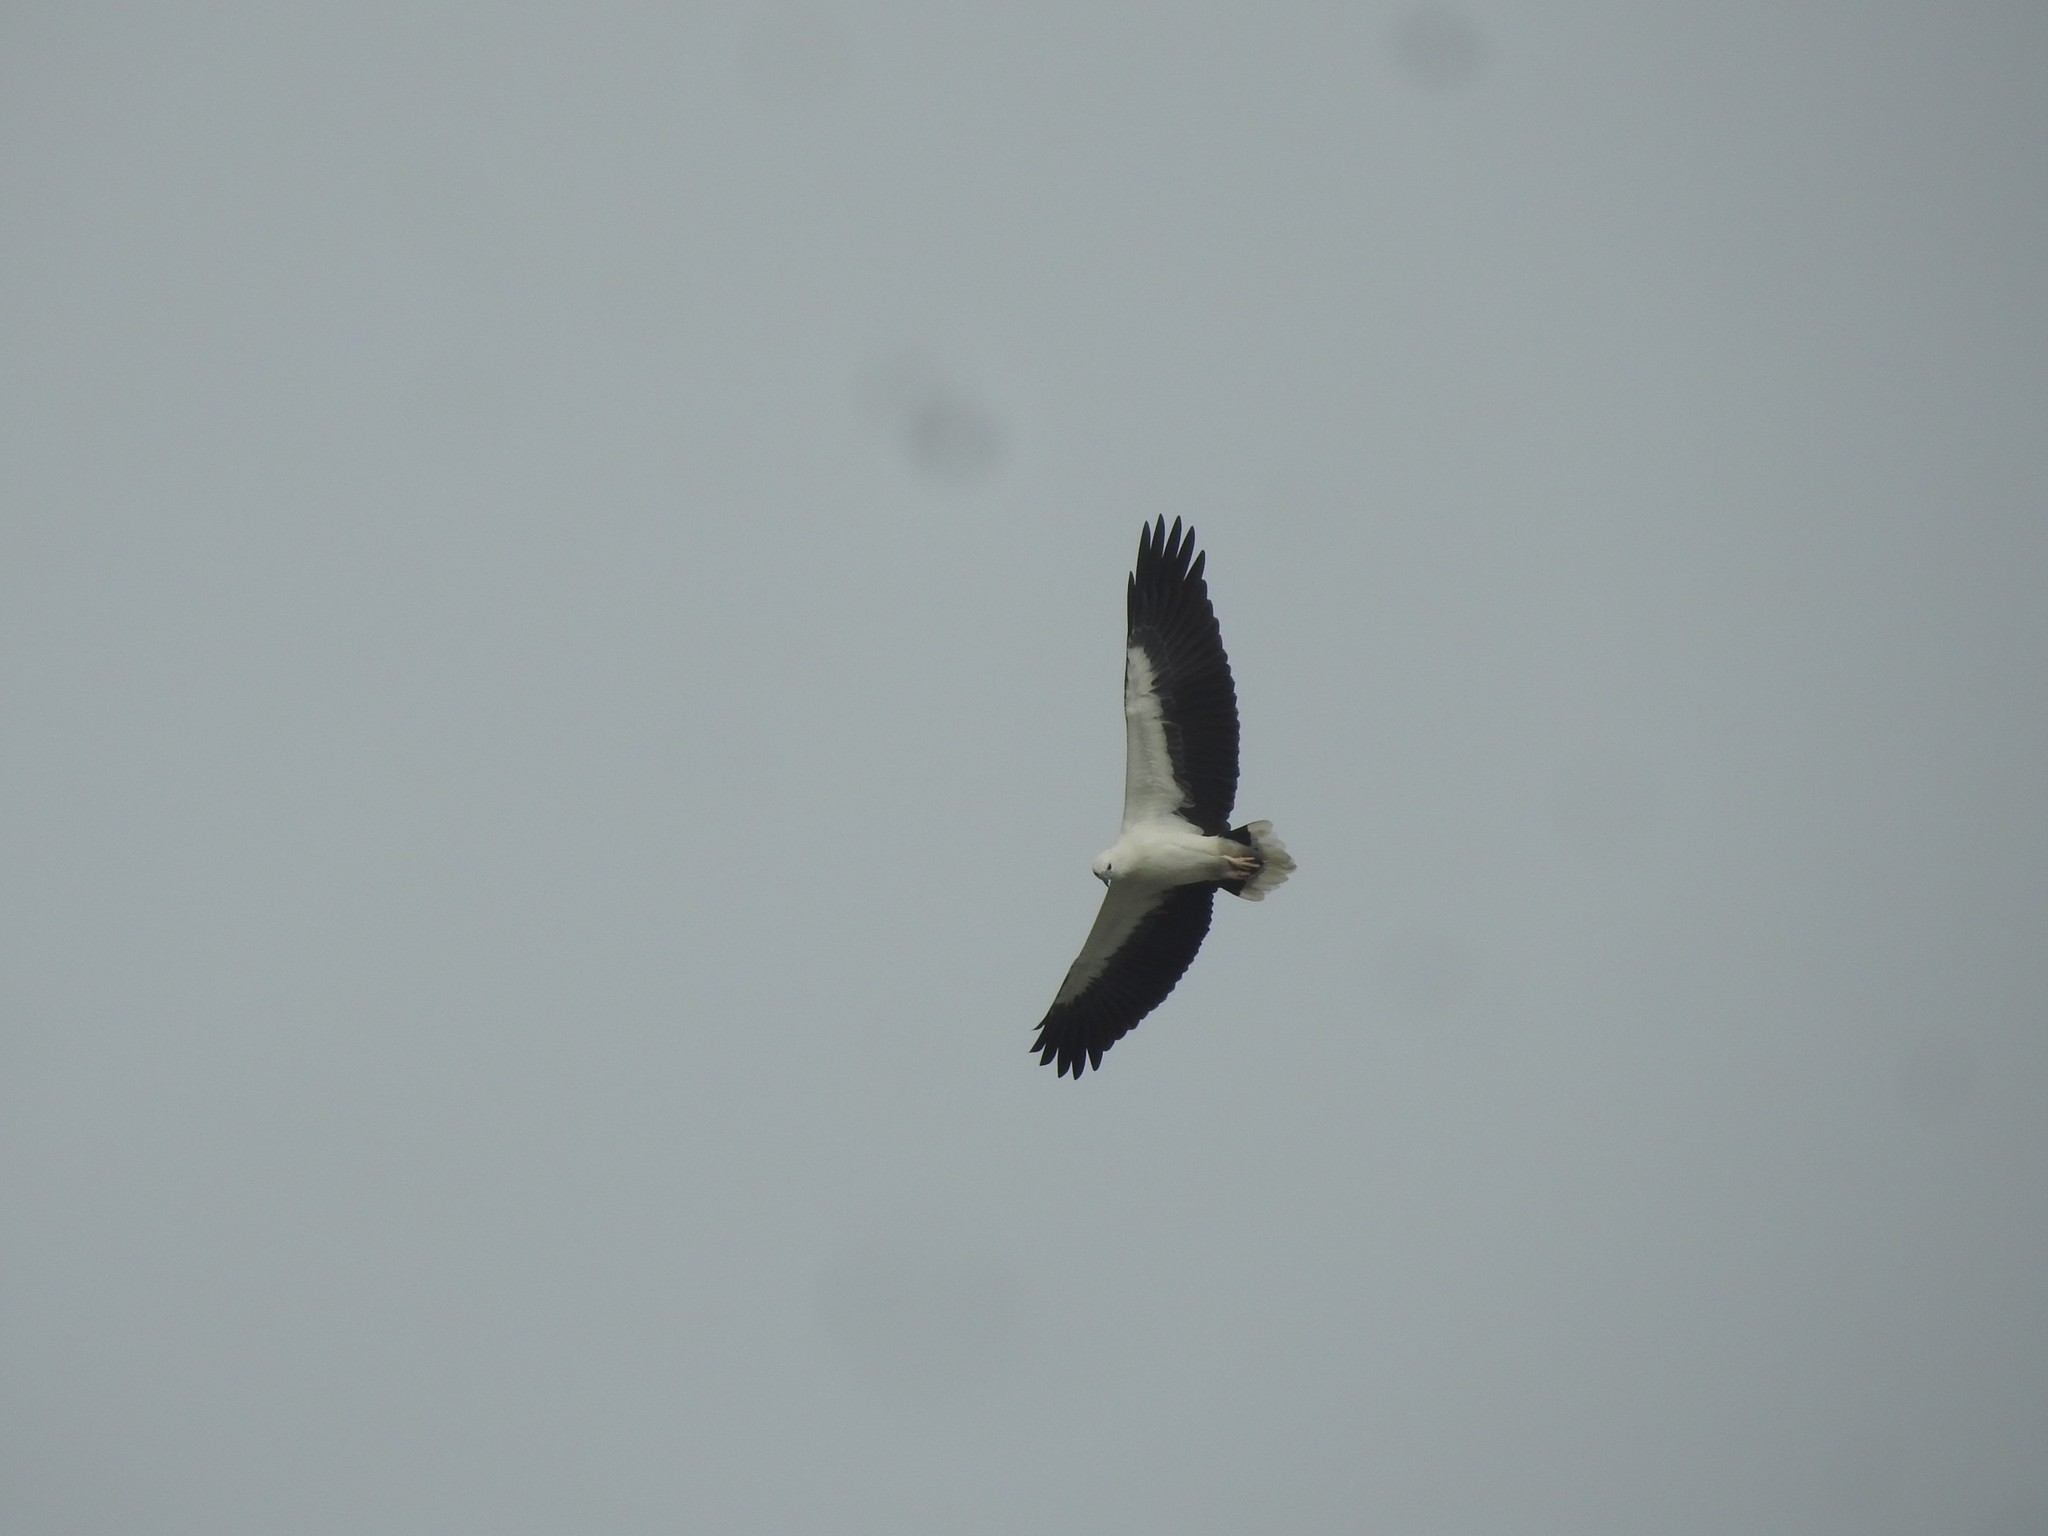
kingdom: Animalia
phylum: Chordata
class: Aves
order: Accipitriformes
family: Accipitridae
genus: Haliaeetus
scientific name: Haliaeetus leucogaster
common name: White-bellied sea eagle
